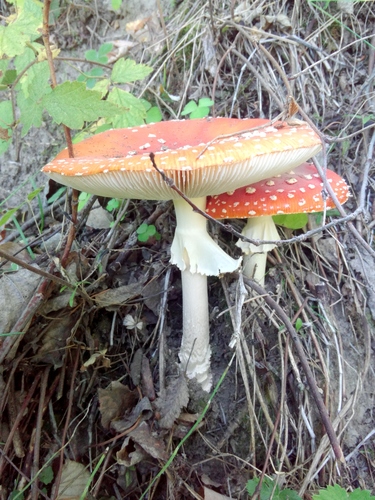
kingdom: Fungi
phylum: Basidiomycota
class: Agaricomycetes
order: Agaricales
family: Amanitaceae
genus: Amanita
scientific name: Amanita muscaria
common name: Fly agaric
